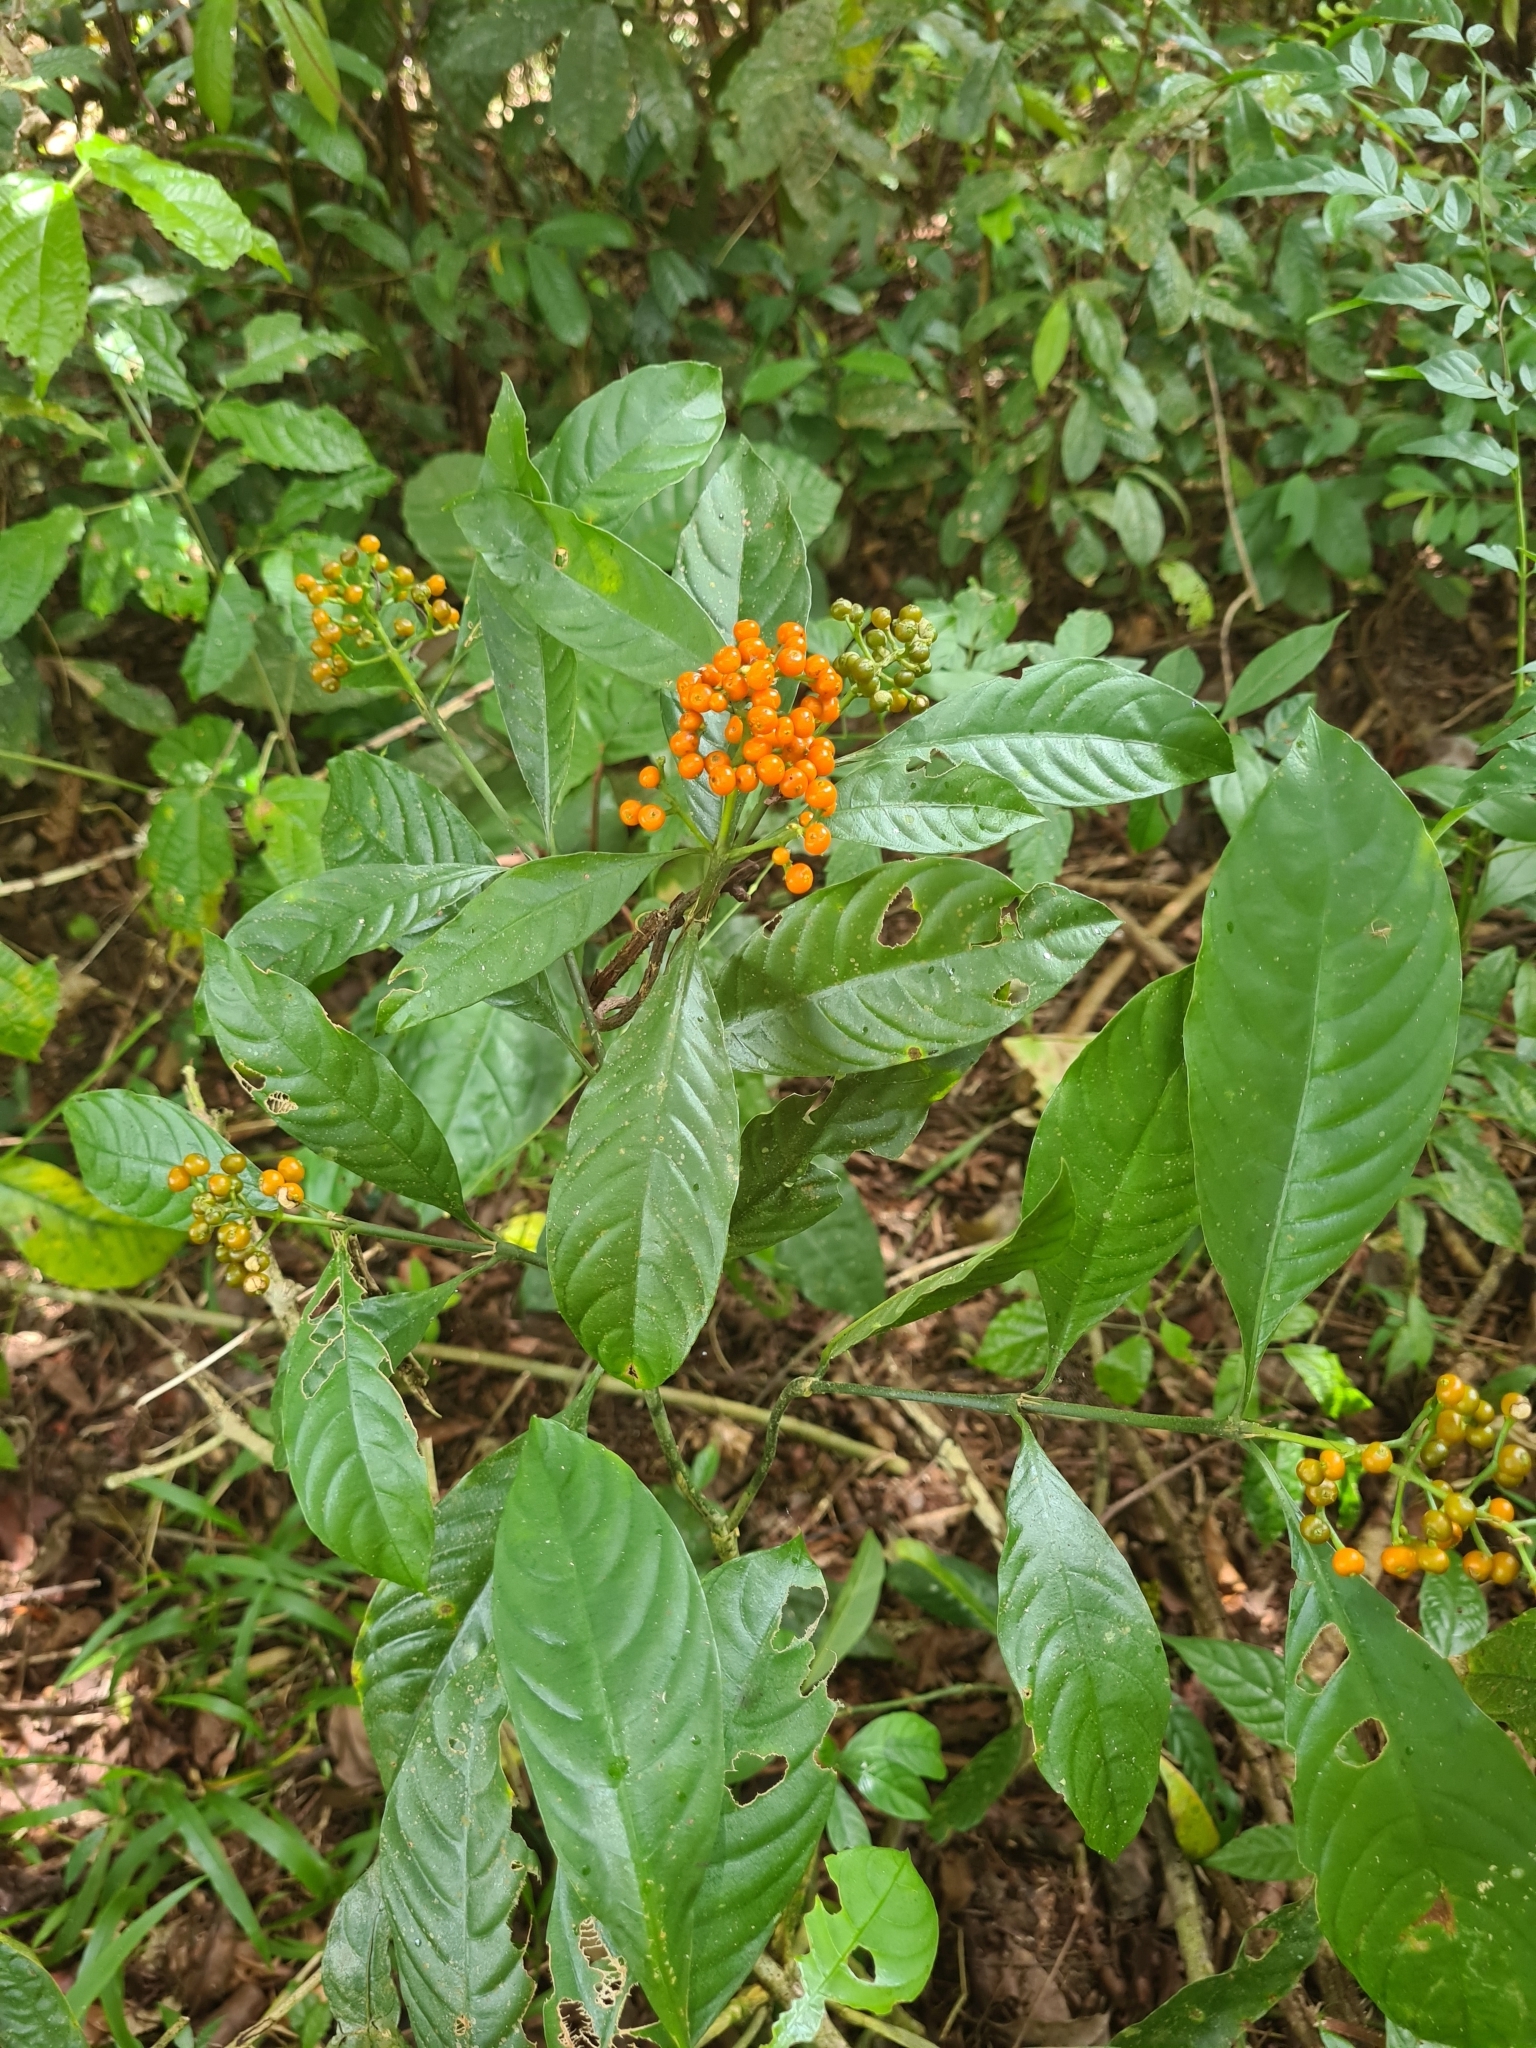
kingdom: Plantae
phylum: Tracheophyta
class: Magnoliopsida
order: Gentianales
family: Rubiaceae
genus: Palicourea
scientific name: Palicourea racemosa
